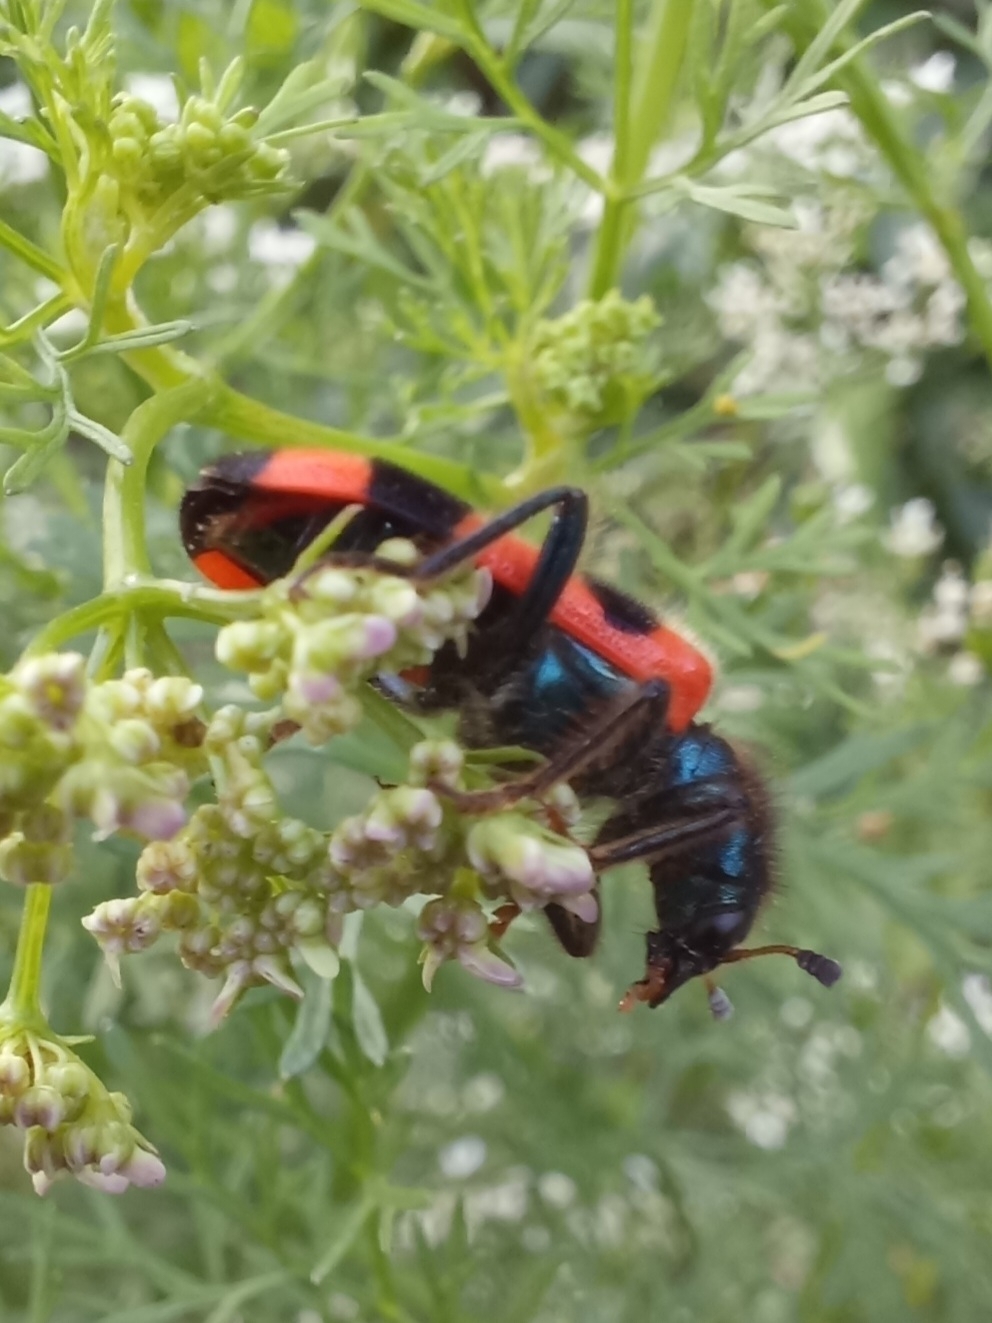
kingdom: Animalia
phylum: Arthropoda
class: Insecta
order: Coleoptera
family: Cleridae
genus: Trichodes
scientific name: Trichodes apiarius
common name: Bee-eating beetle
